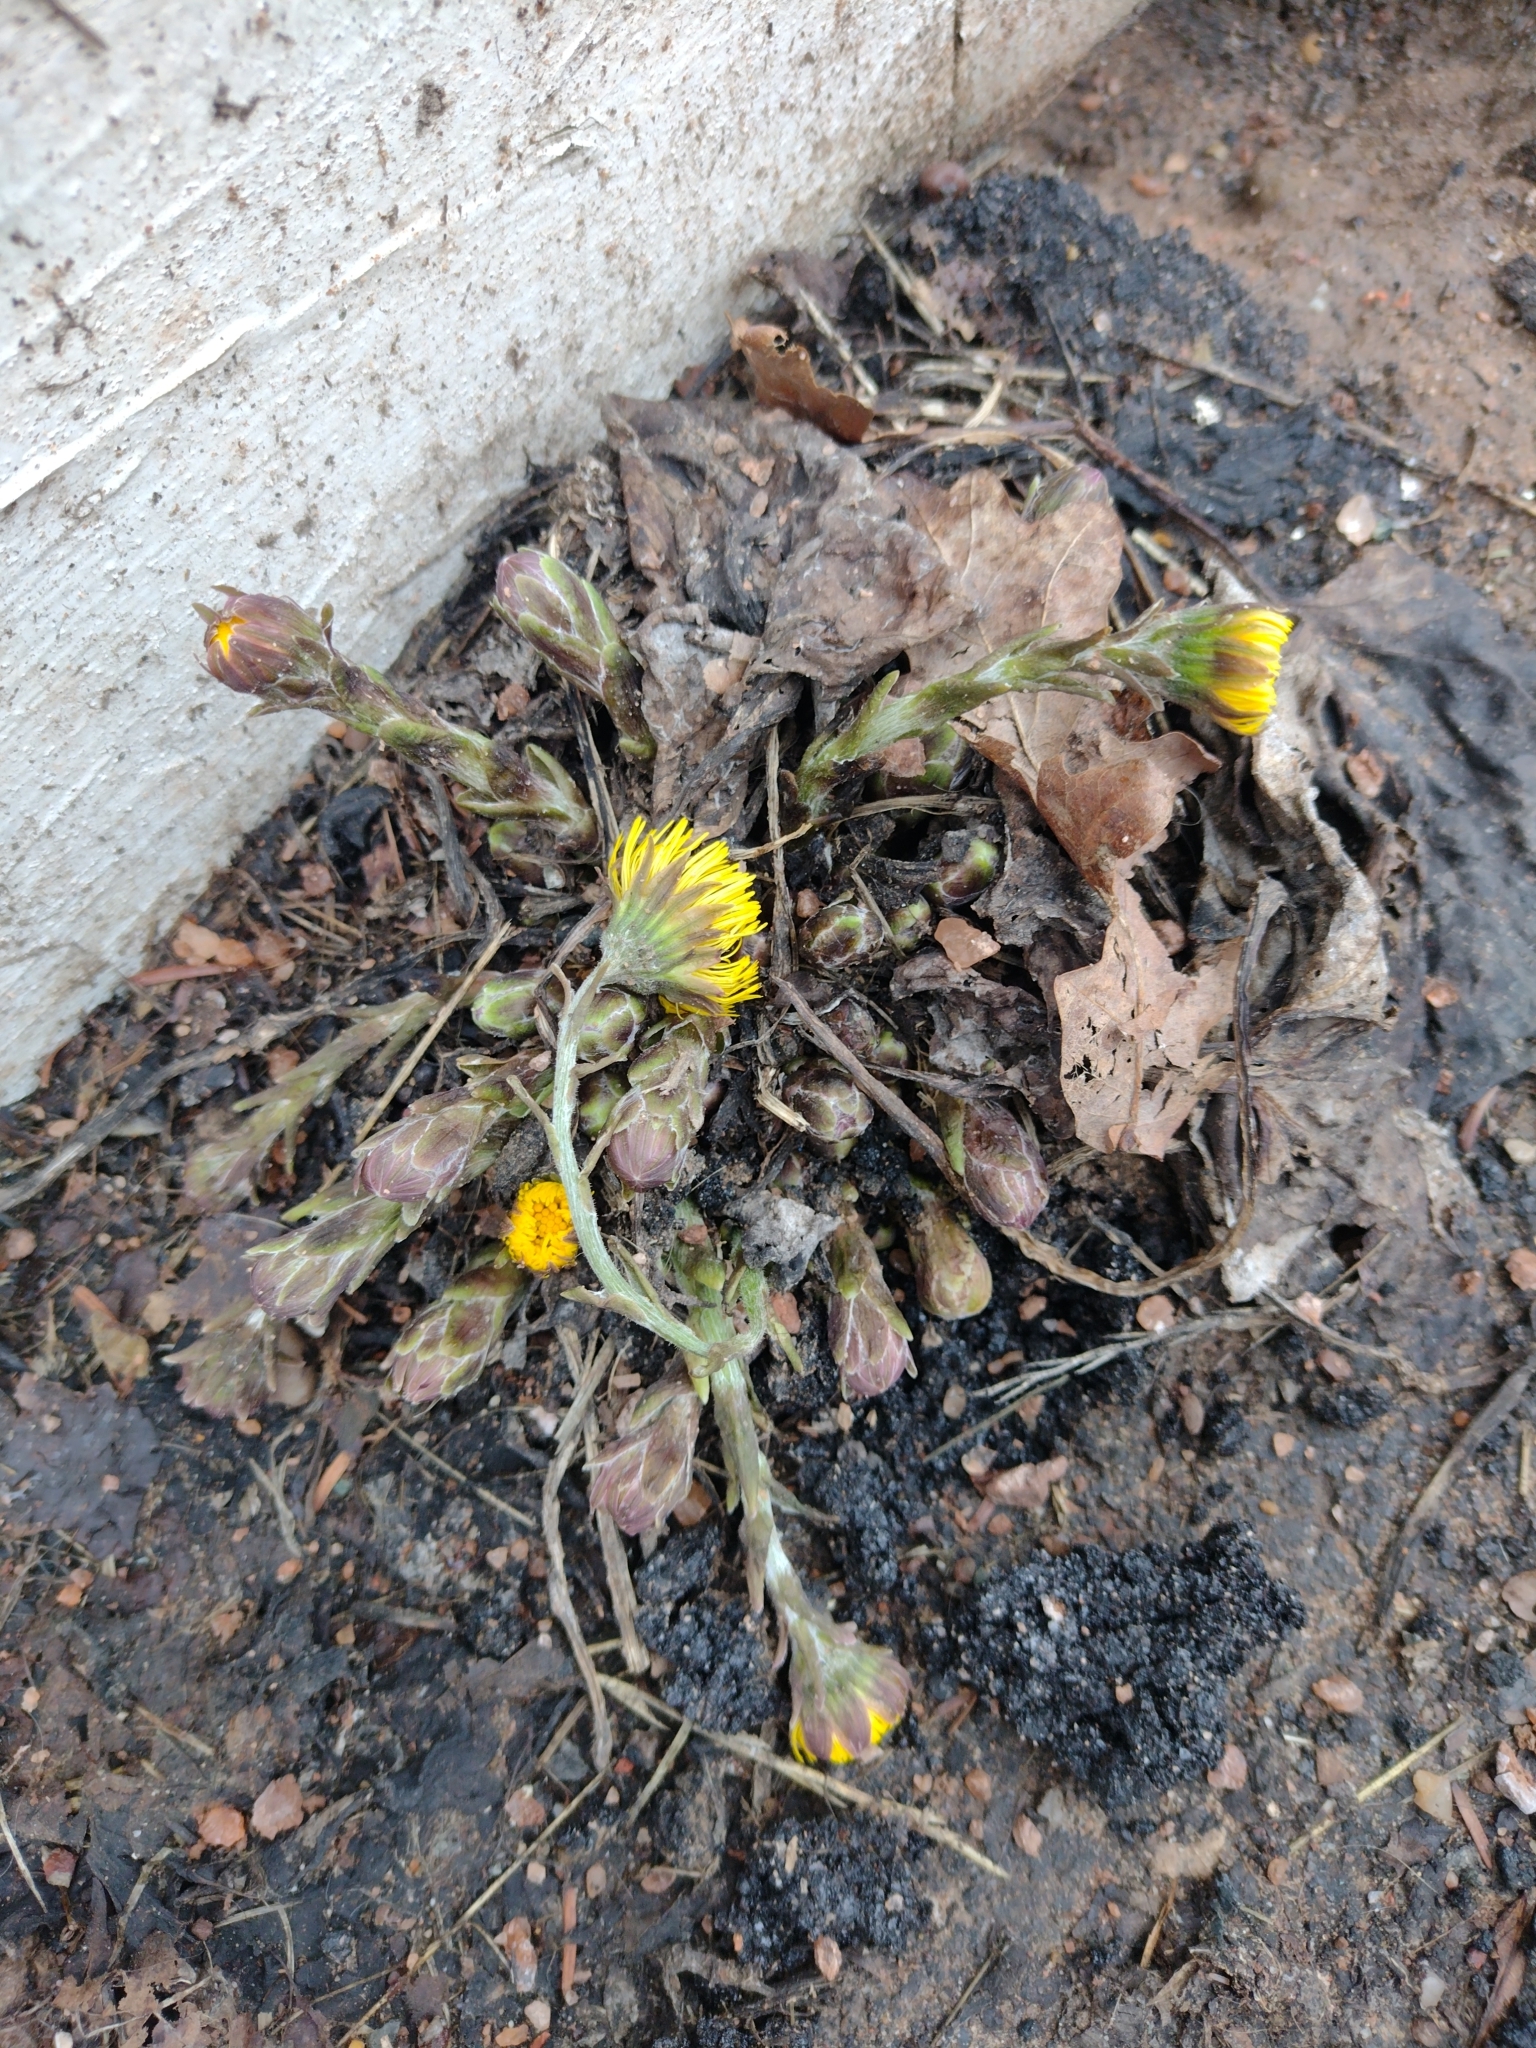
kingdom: Plantae
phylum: Tracheophyta
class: Magnoliopsida
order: Asterales
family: Asteraceae
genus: Tussilago
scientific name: Tussilago farfara
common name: Coltsfoot
